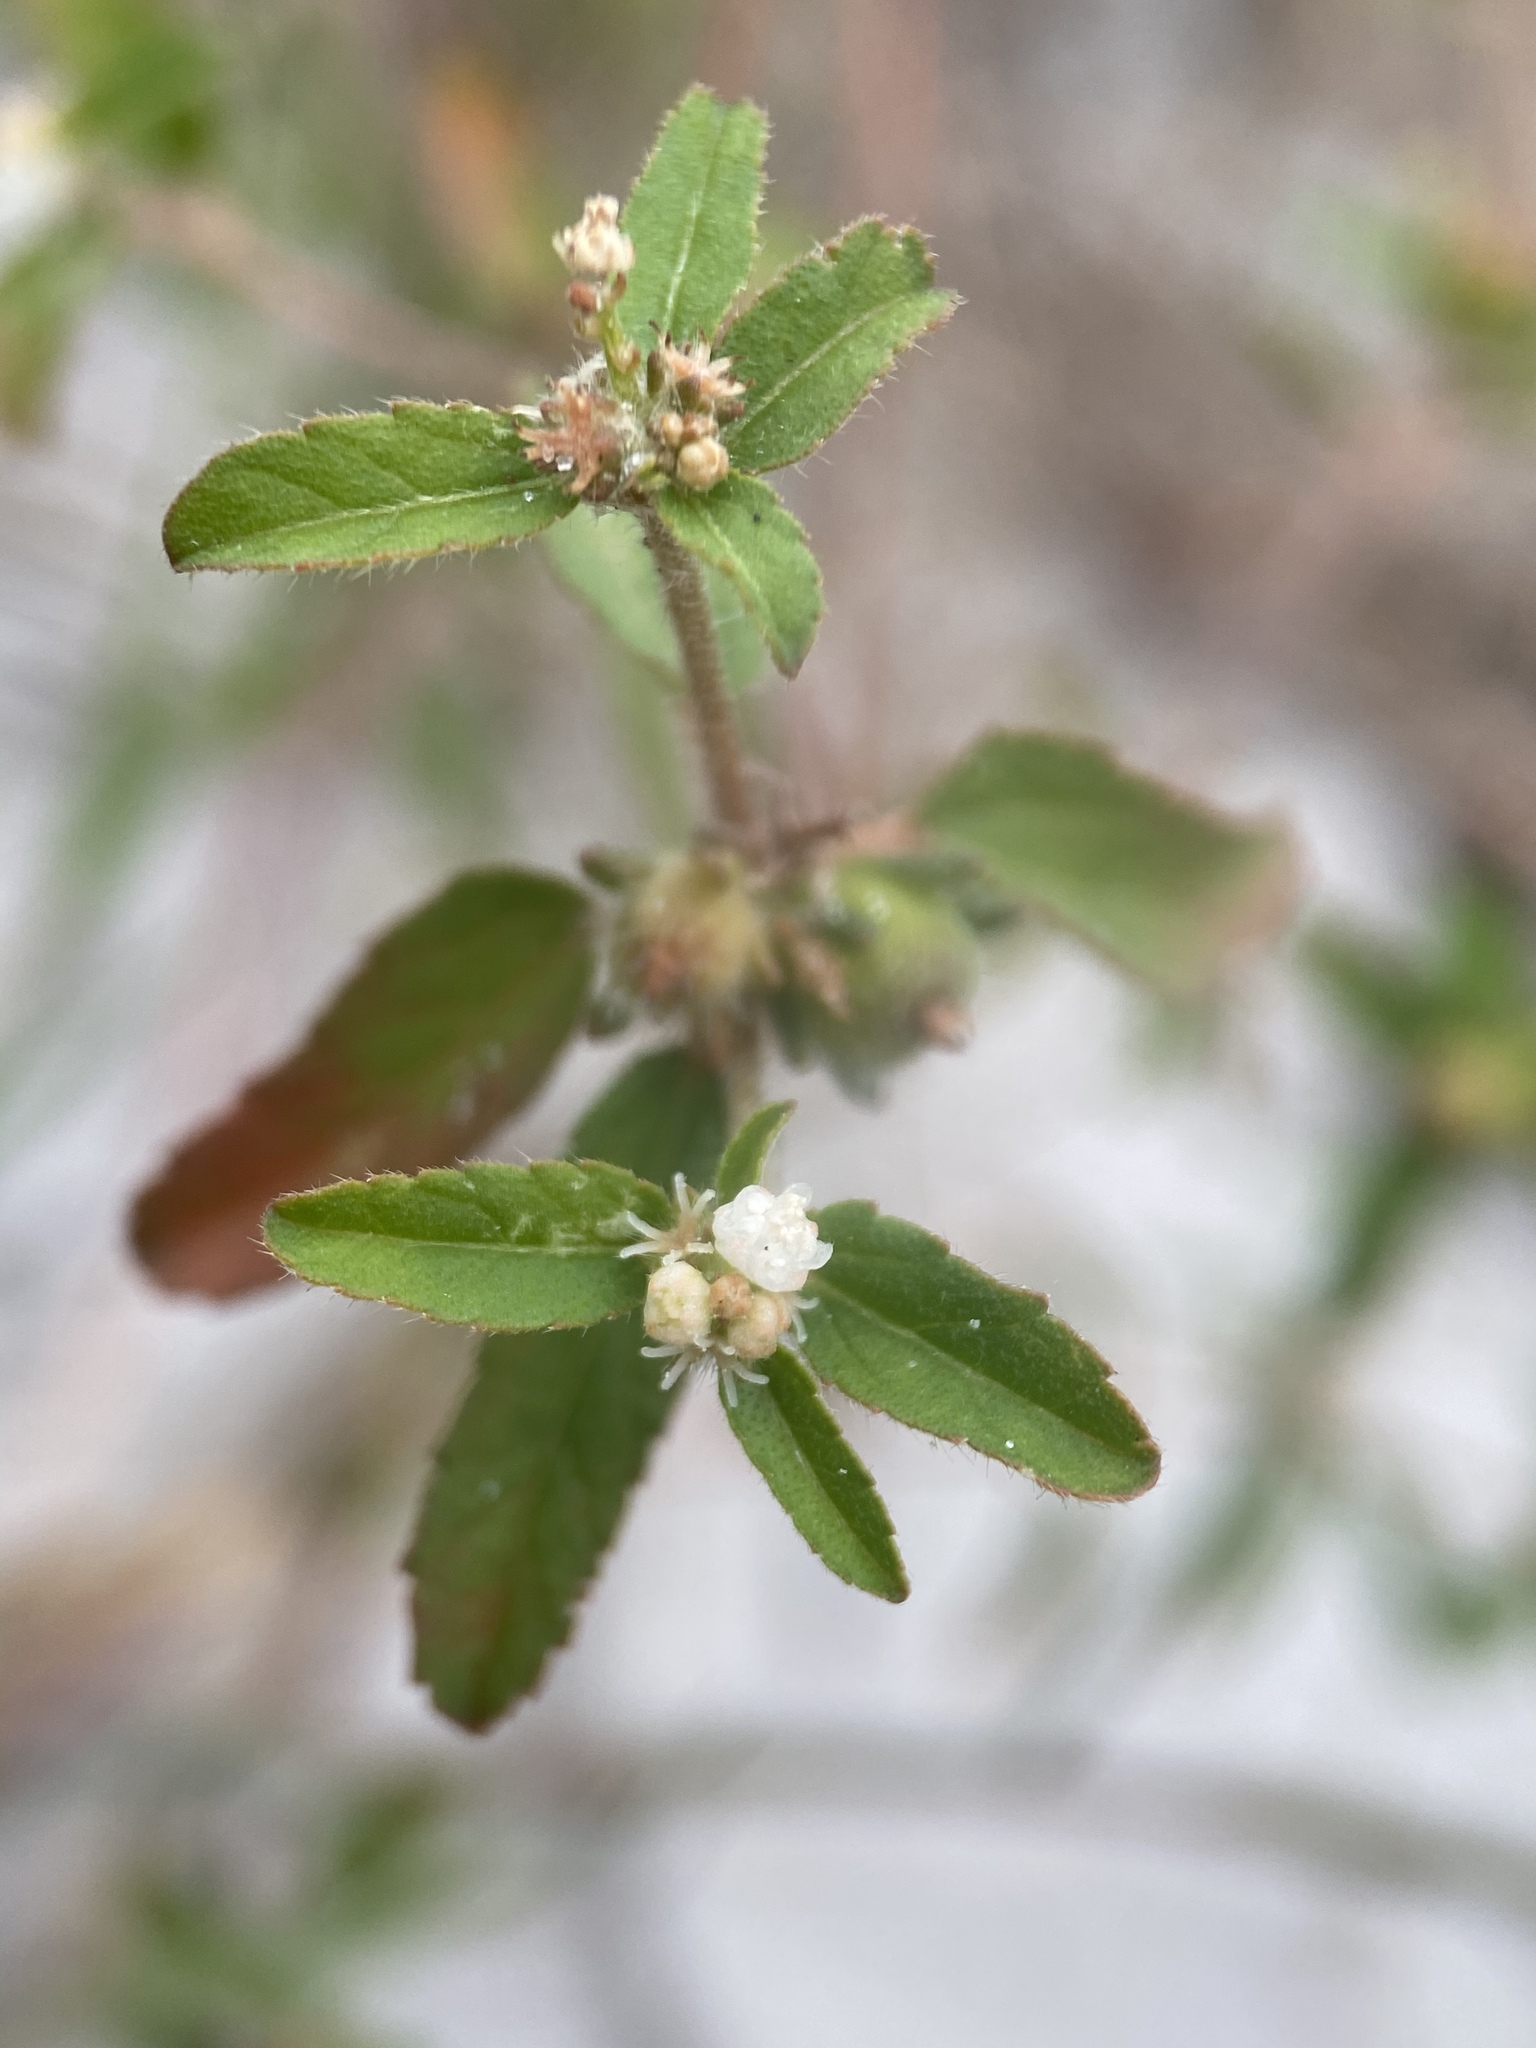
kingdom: Plantae
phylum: Tracheophyta
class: Magnoliopsida
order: Malpighiales
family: Euphorbiaceae
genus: Croton
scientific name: Croton glandulosus
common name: Tropic croton
